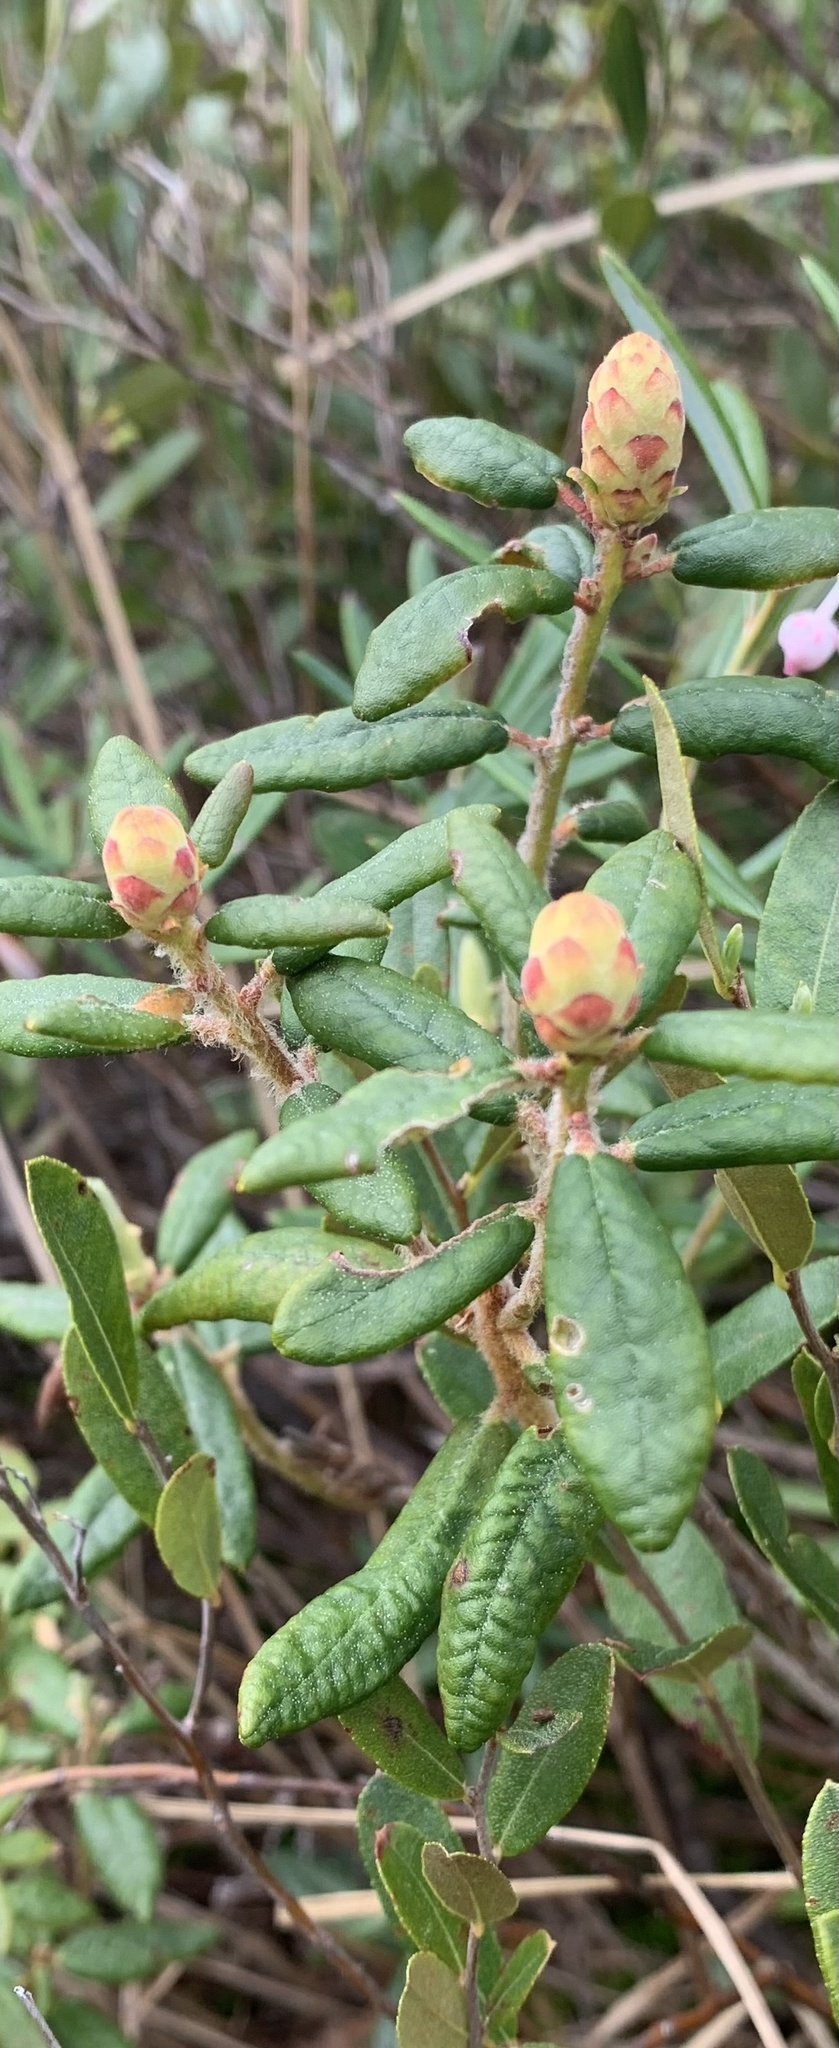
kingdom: Plantae
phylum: Tracheophyta
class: Magnoliopsida
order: Ericales
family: Ericaceae
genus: Rhododendron
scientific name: Rhododendron groenlandicum
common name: Bog labrador tea
